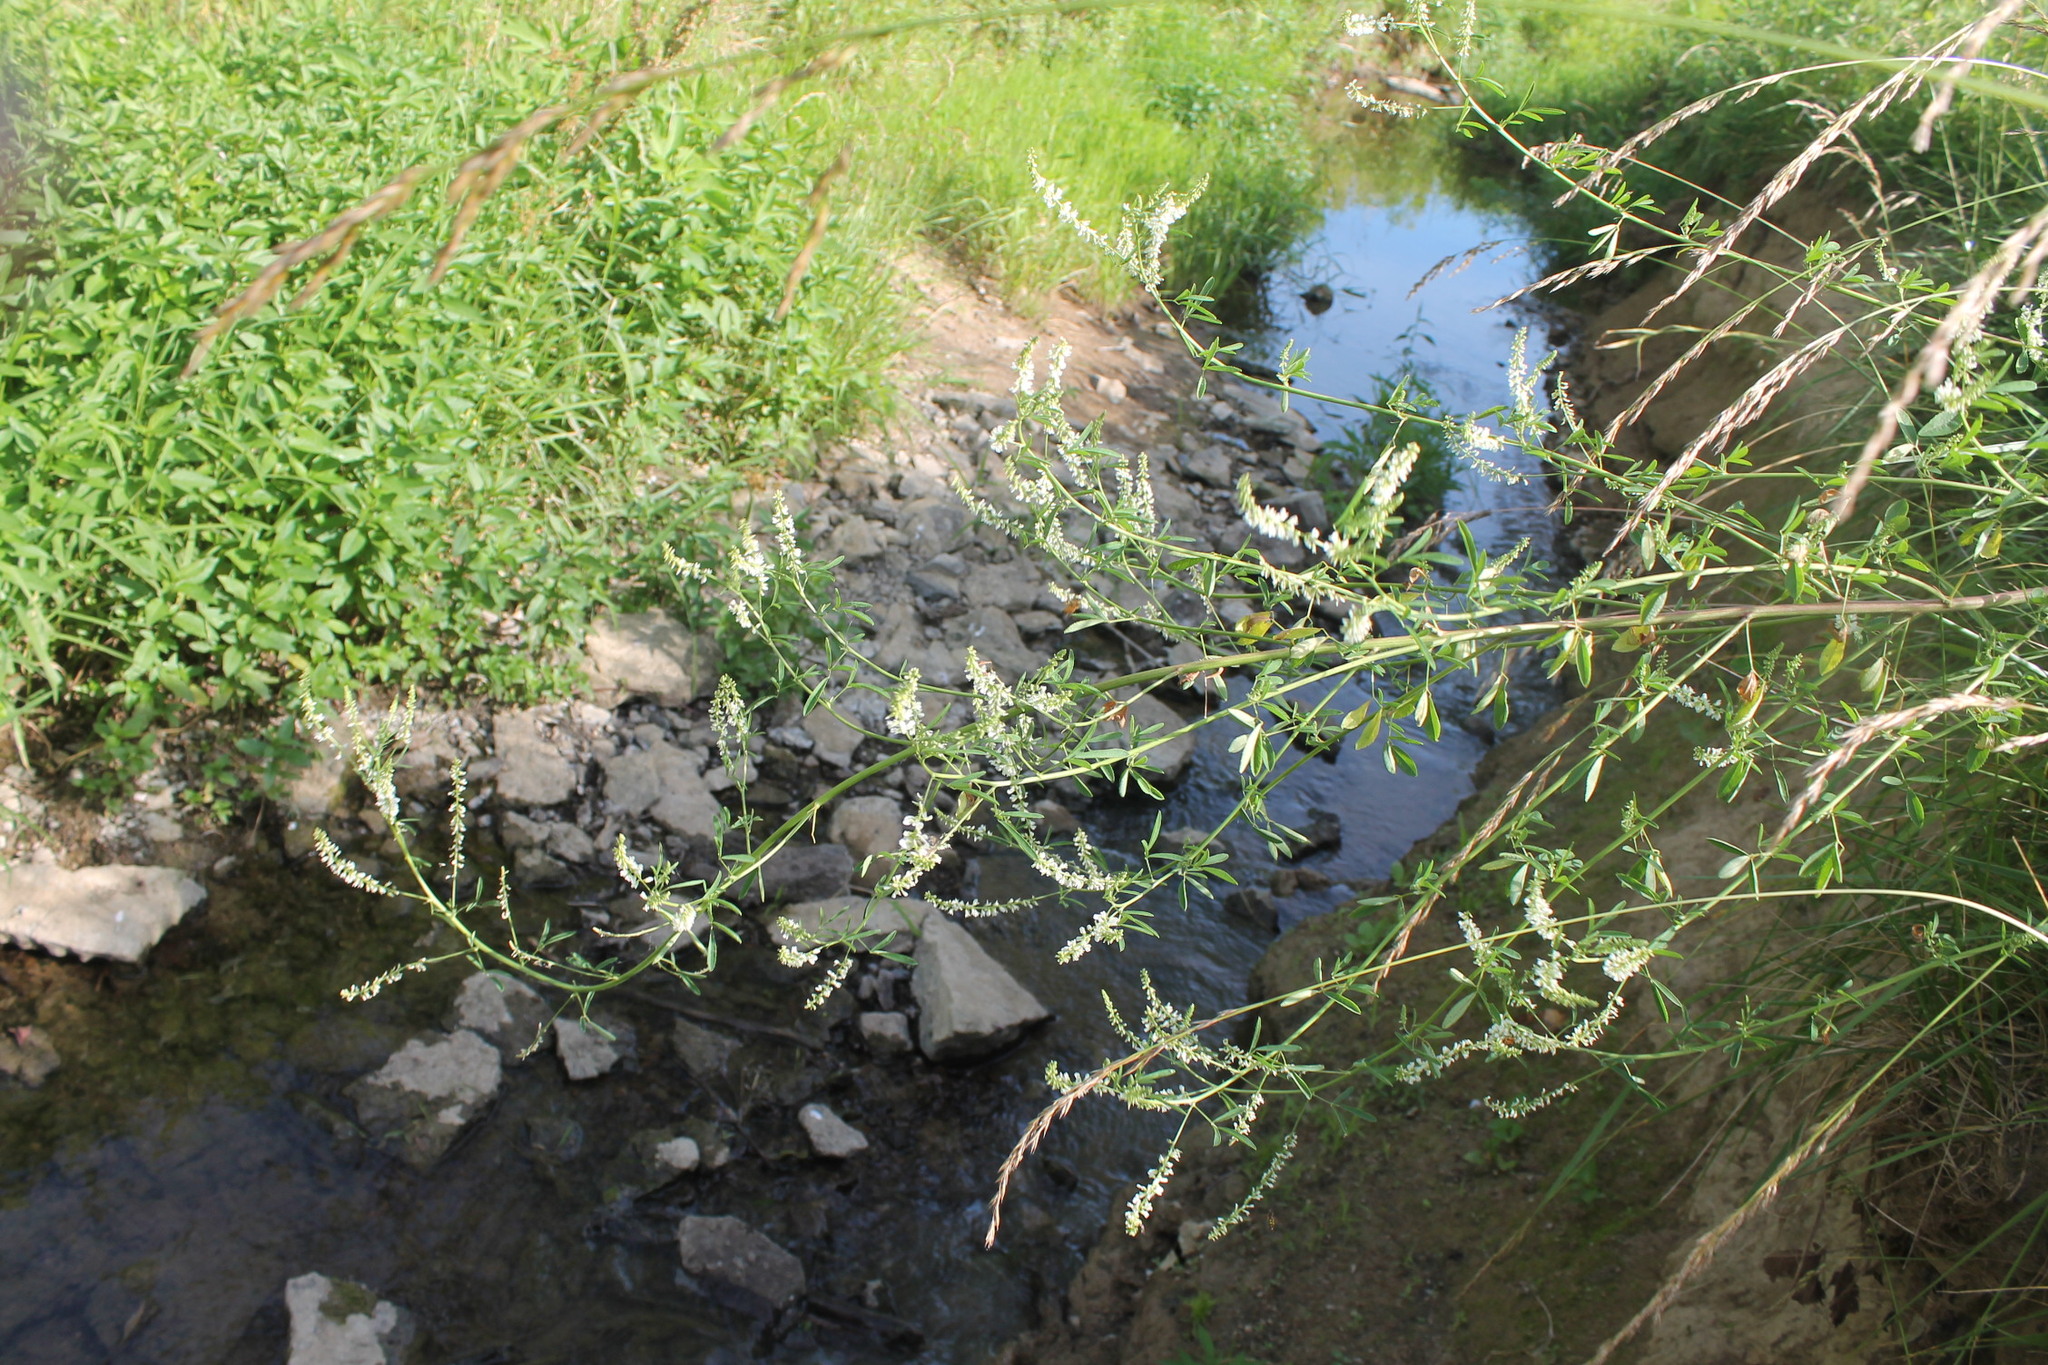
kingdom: Plantae
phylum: Tracheophyta
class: Magnoliopsida
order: Fabales
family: Fabaceae
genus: Melilotus
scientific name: Melilotus albus
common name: White melilot
